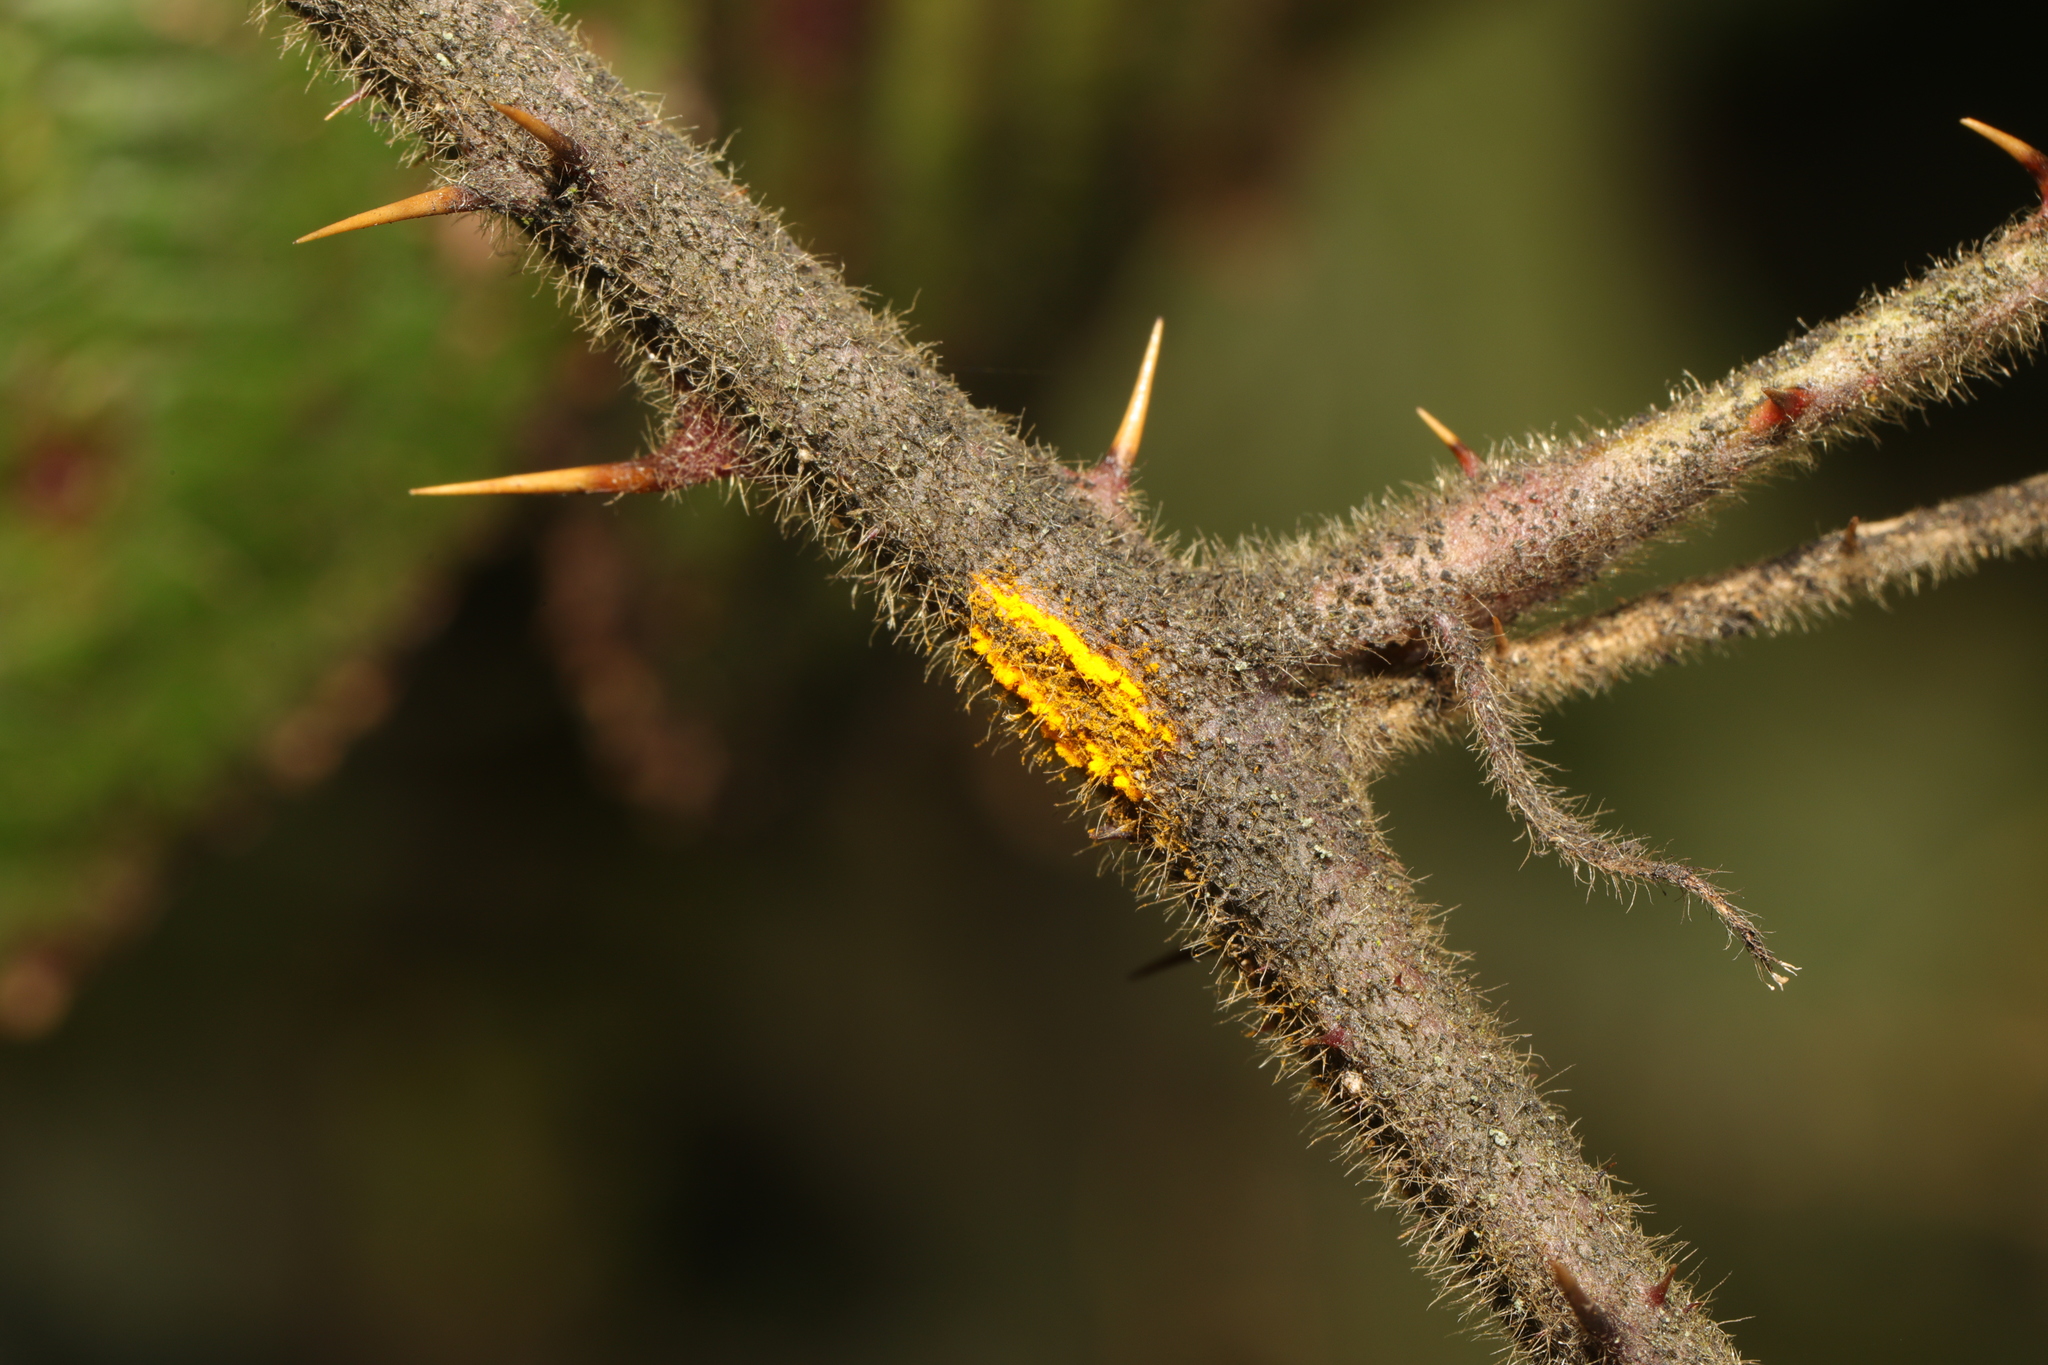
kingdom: Fungi
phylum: Basidiomycota
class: Pucciniomycetes
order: Pucciniales
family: Phragmidiaceae
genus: Kuehneola
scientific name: Kuehneola uredinis
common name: Bramble stem rust
